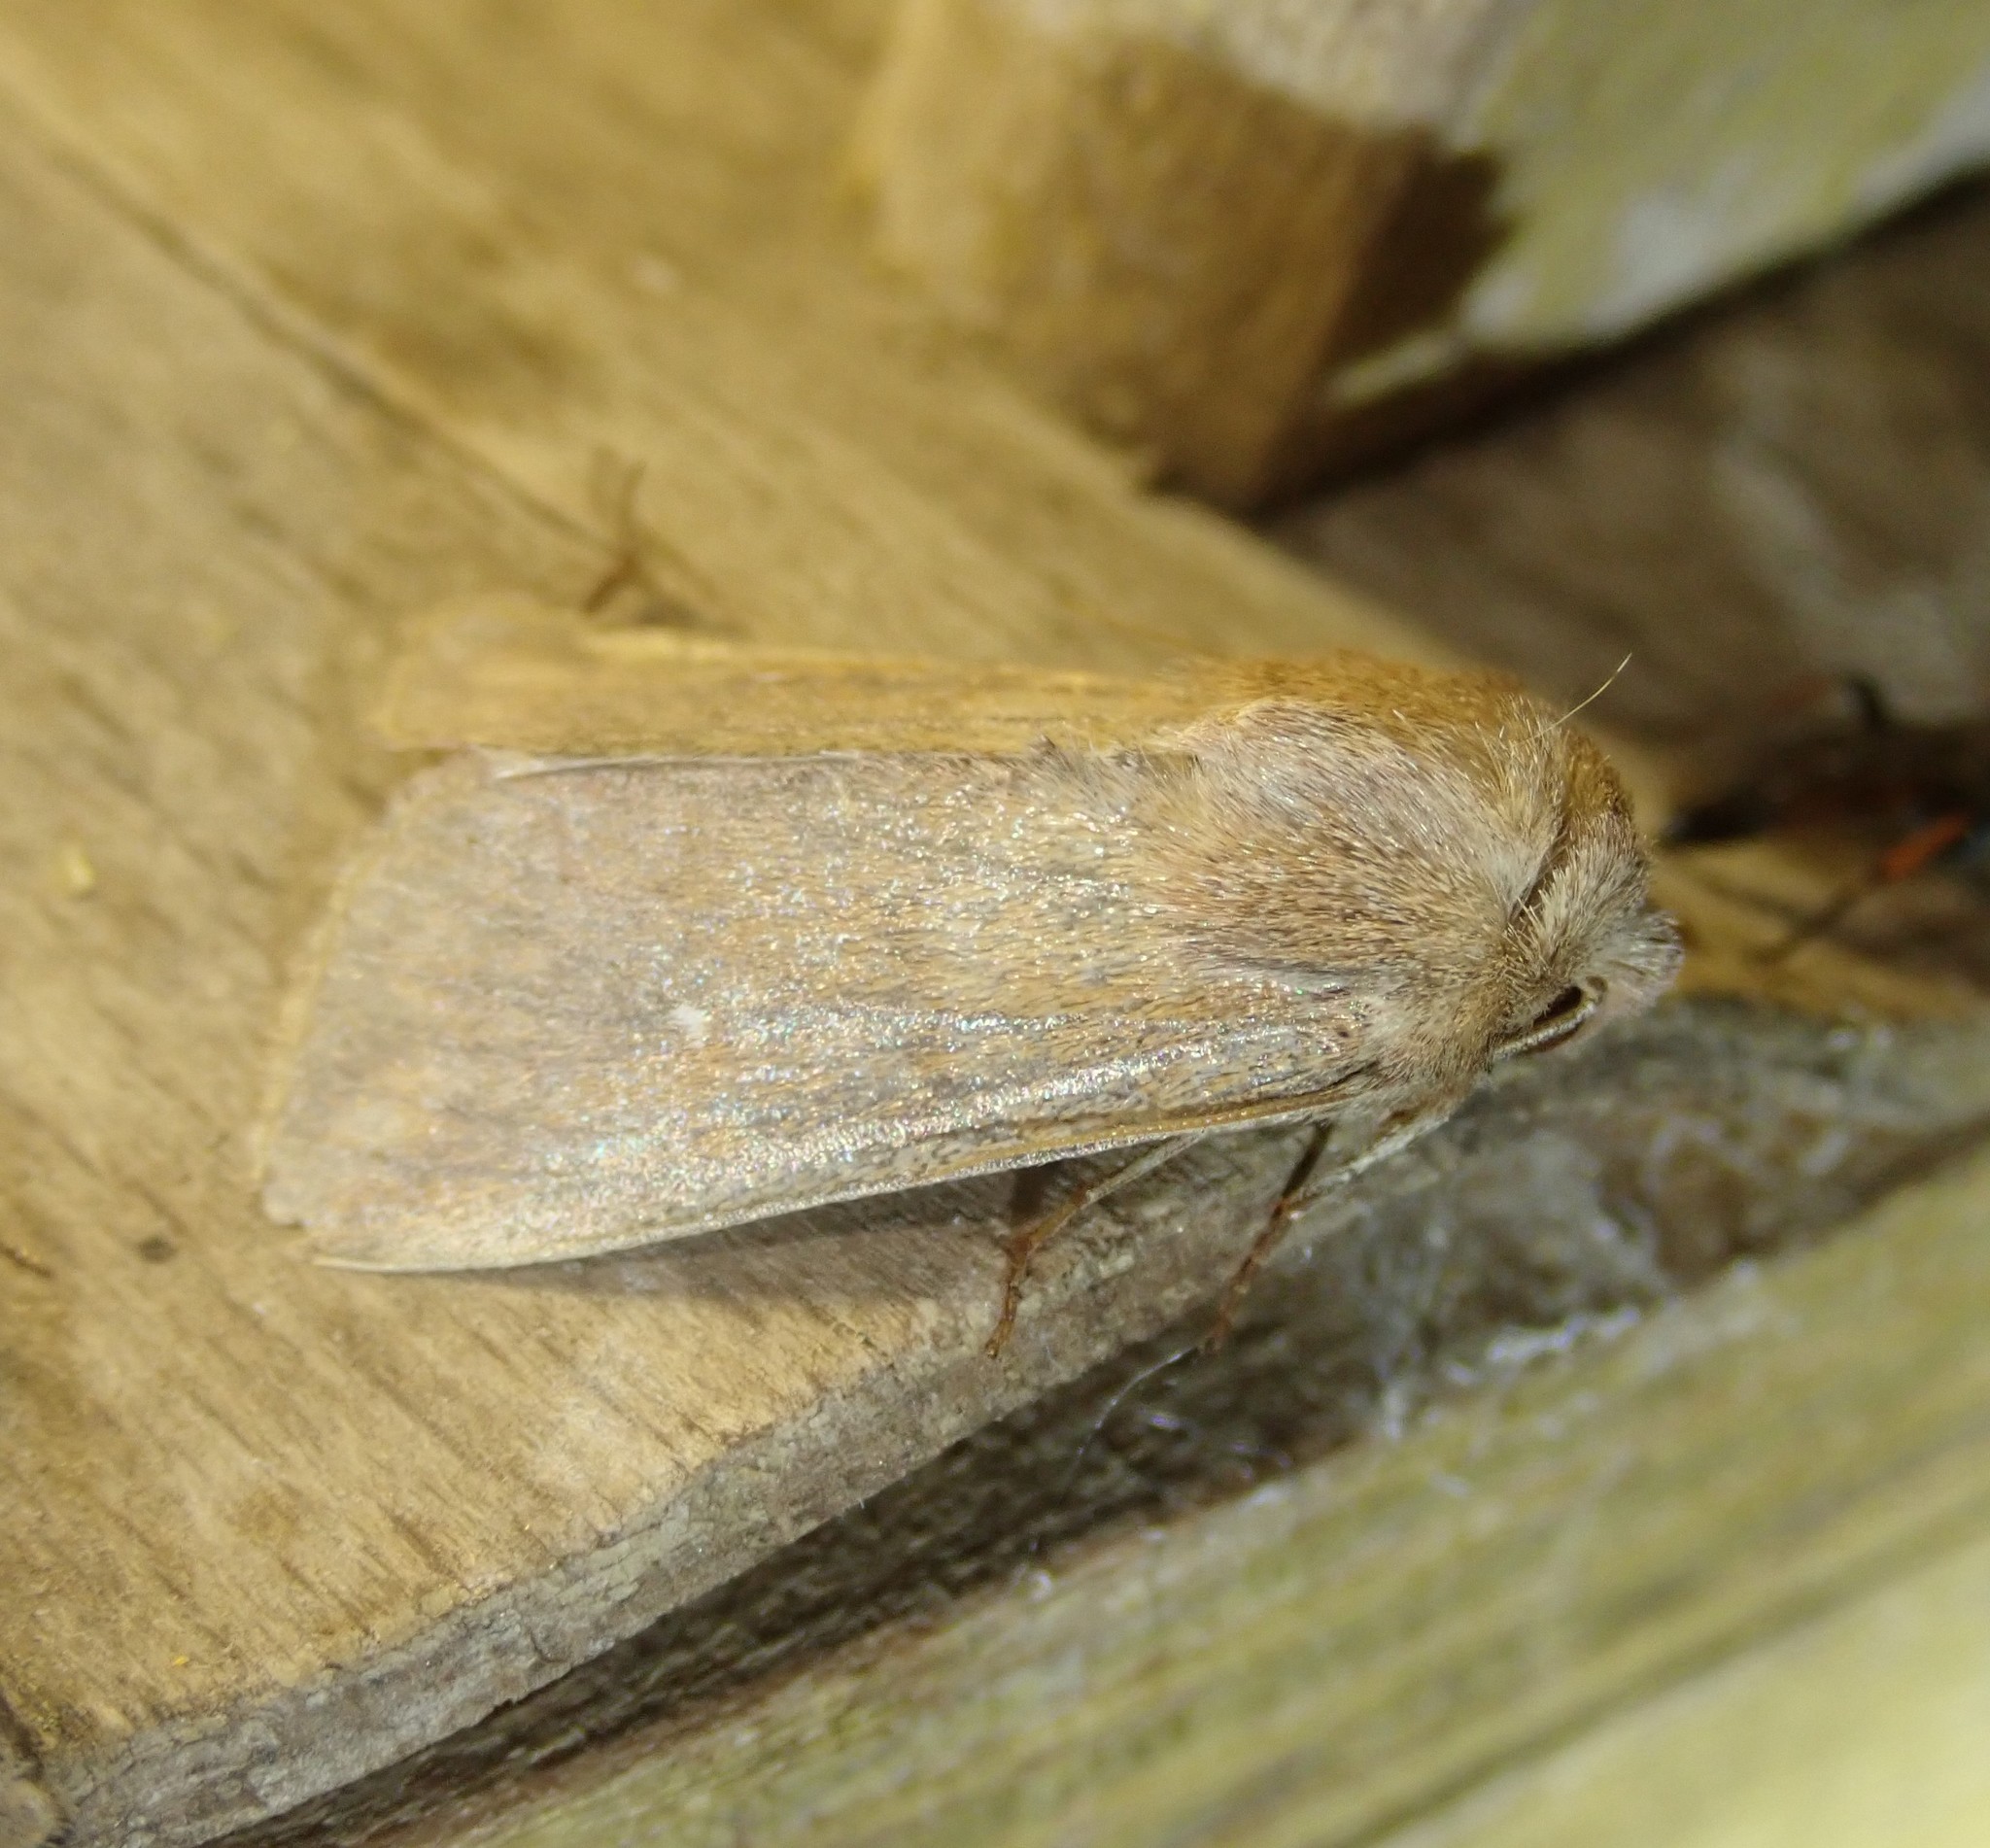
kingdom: Animalia
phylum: Arthropoda
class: Insecta
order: Lepidoptera
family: Noctuidae
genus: Mythimna
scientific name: Mythimna albipuncta
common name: White-point
